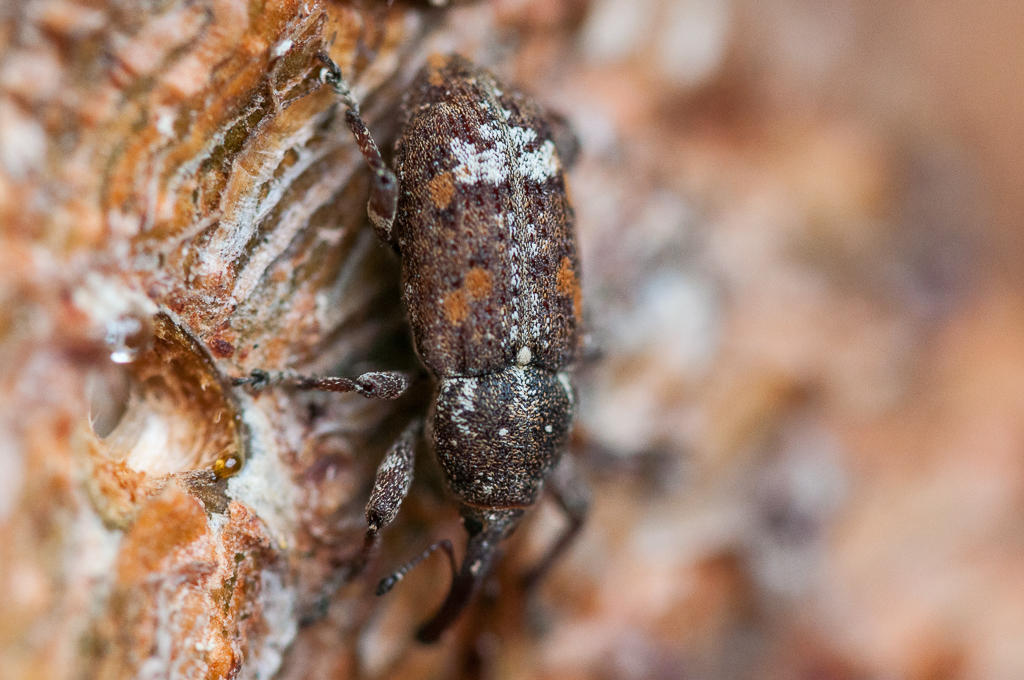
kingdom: Animalia
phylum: Arthropoda
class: Insecta
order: Coleoptera
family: Curculionidae
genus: Pissodes
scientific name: Pissodes
